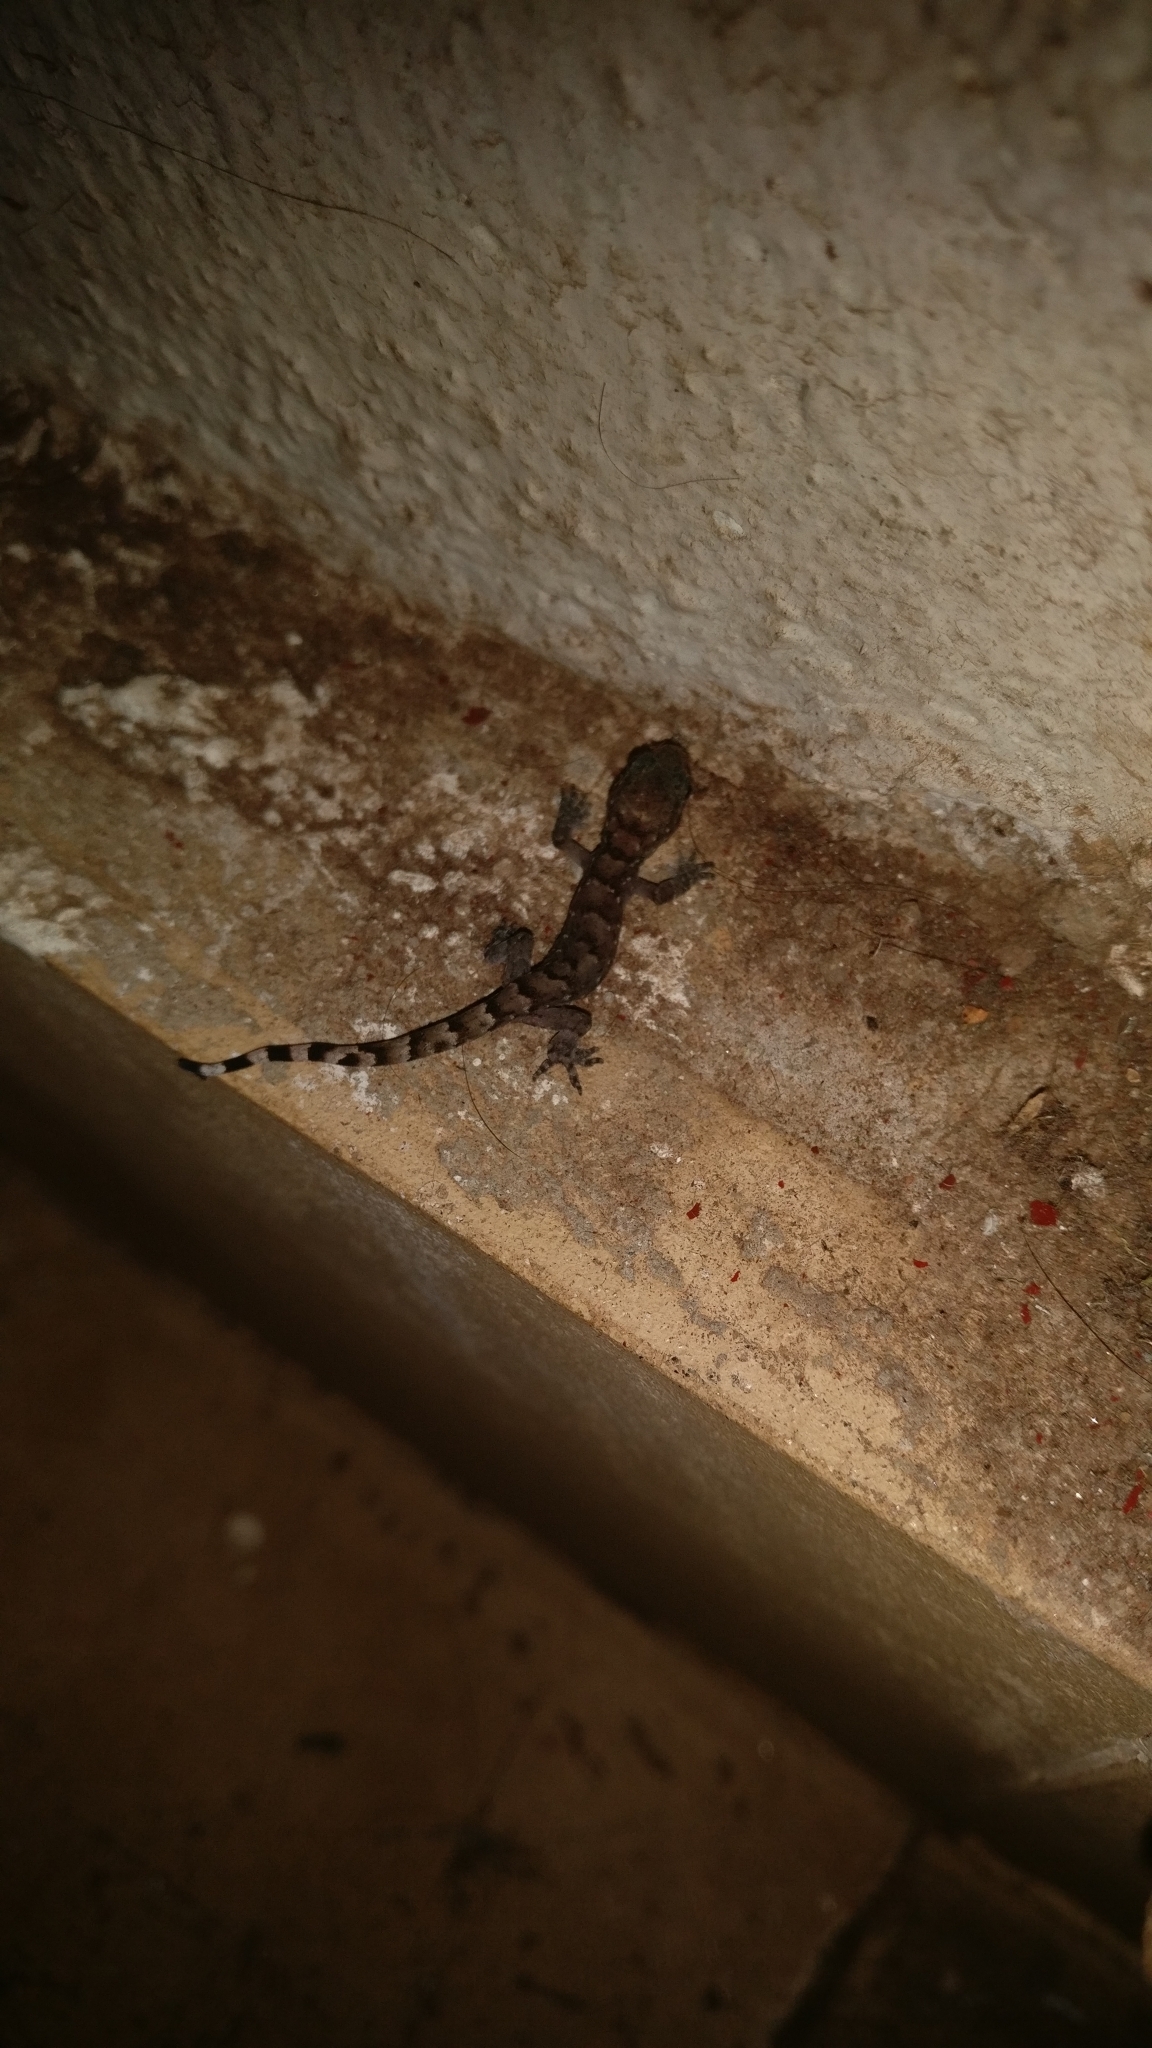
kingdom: Animalia
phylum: Chordata
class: Squamata
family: Gekkonidae
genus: Dravidogecko
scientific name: Dravidogecko tholpalli
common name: Kodaikanal dravidogecko
